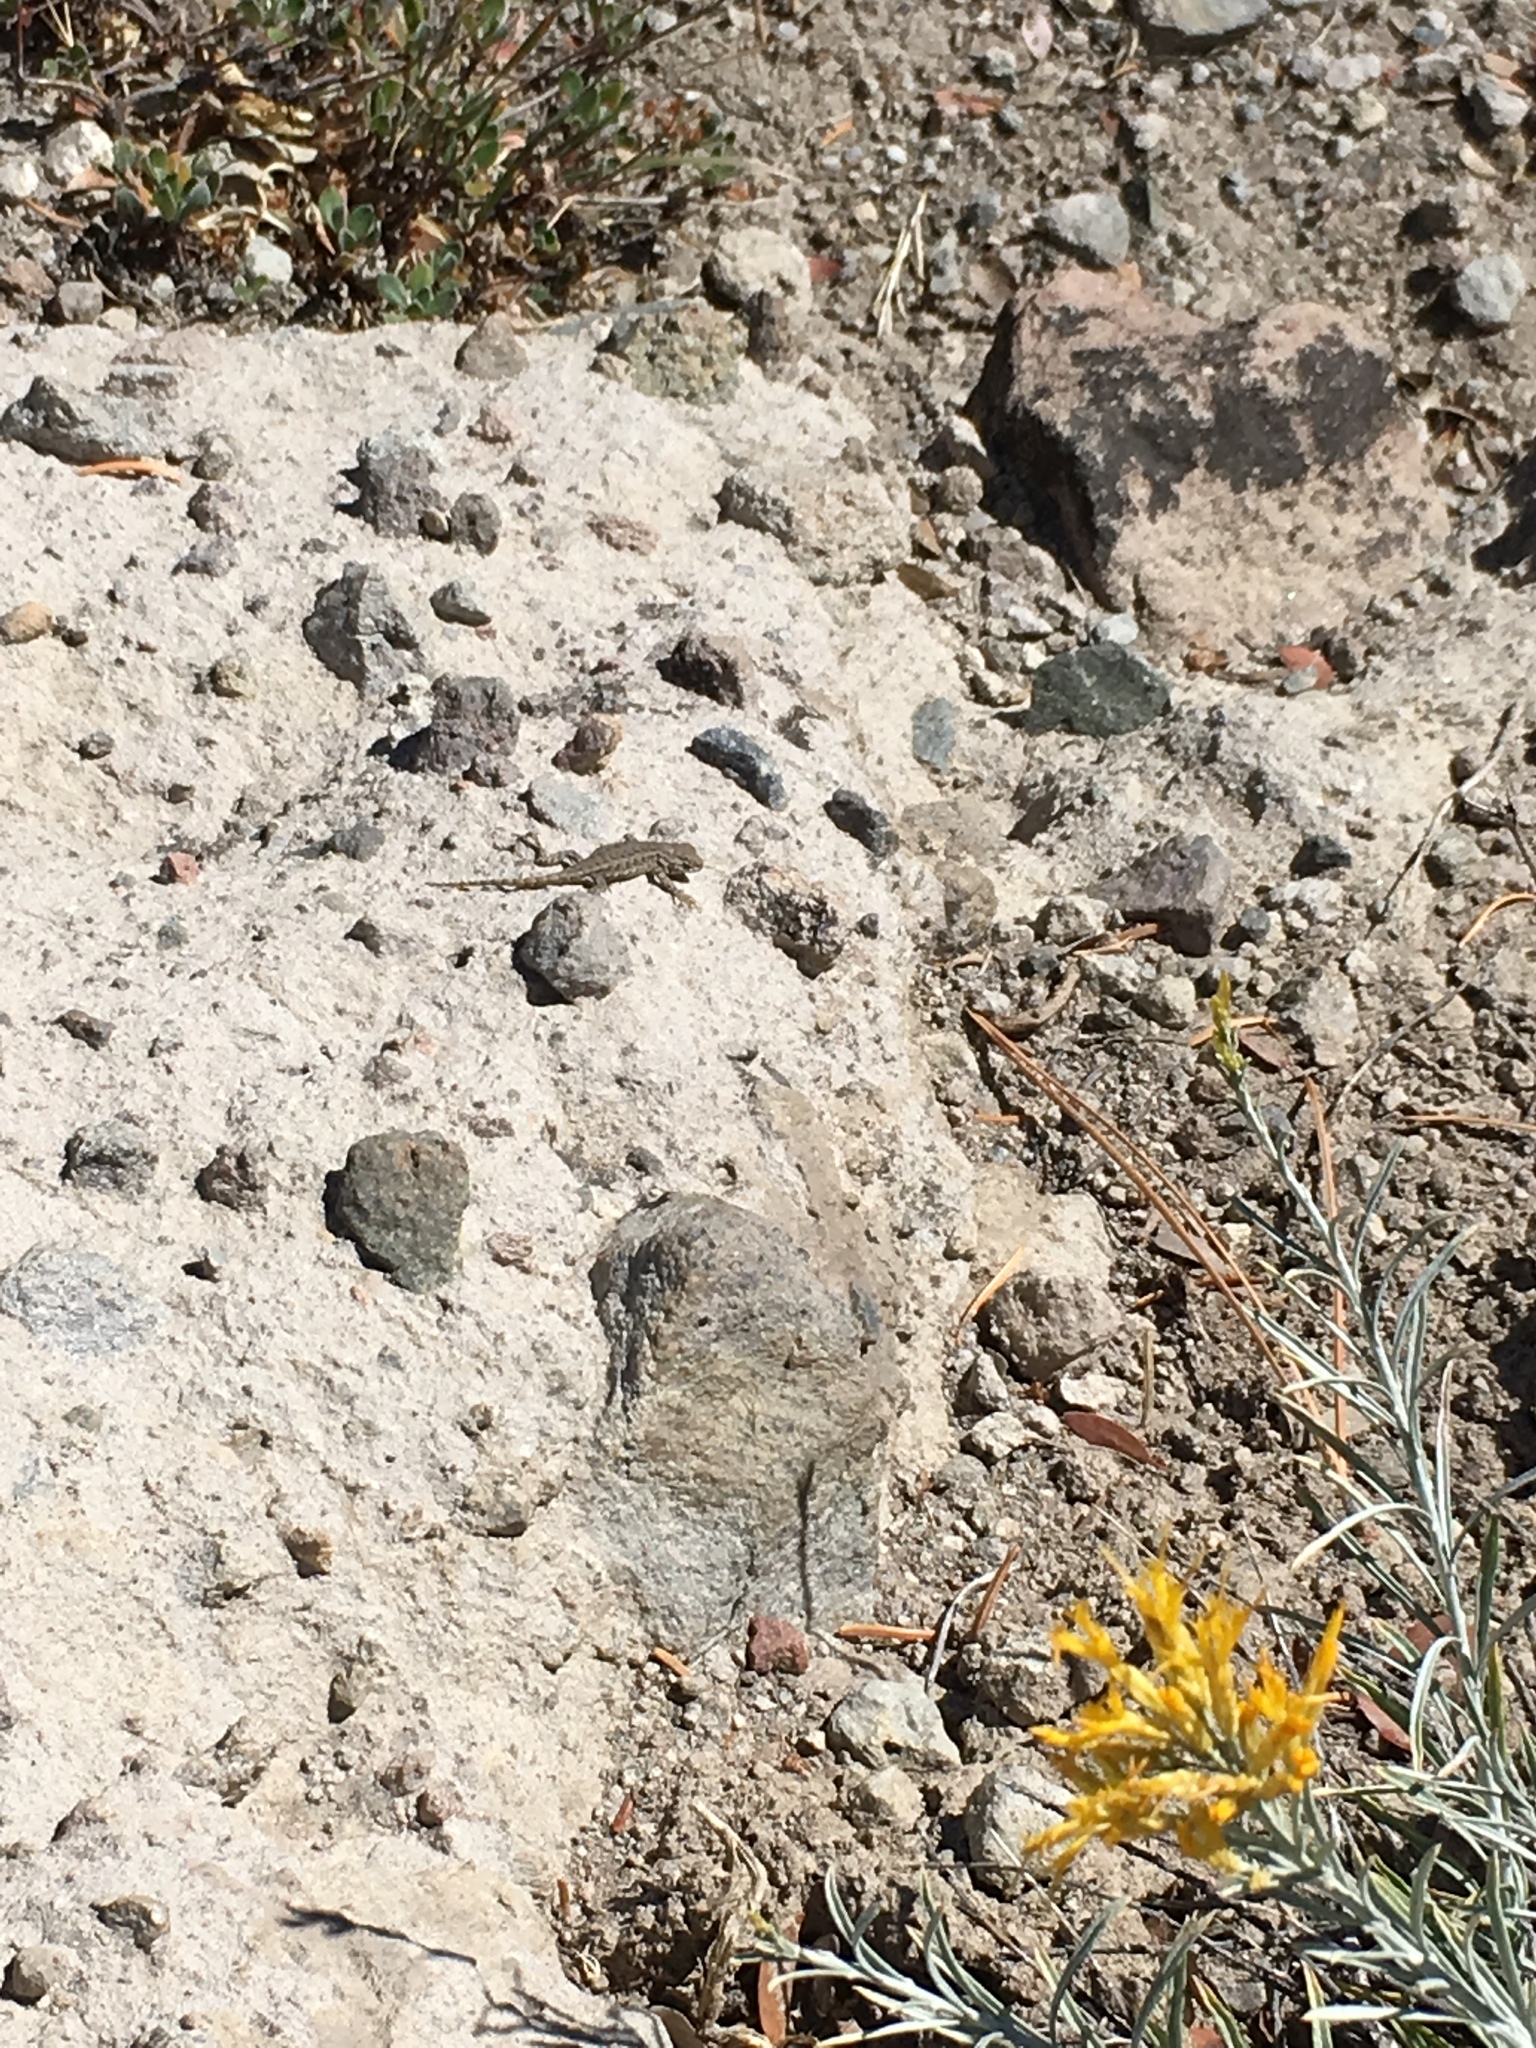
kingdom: Animalia
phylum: Chordata
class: Squamata
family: Phrynosomatidae
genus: Sceloporus
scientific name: Sceloporus occidentalis
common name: Western fence lizard
